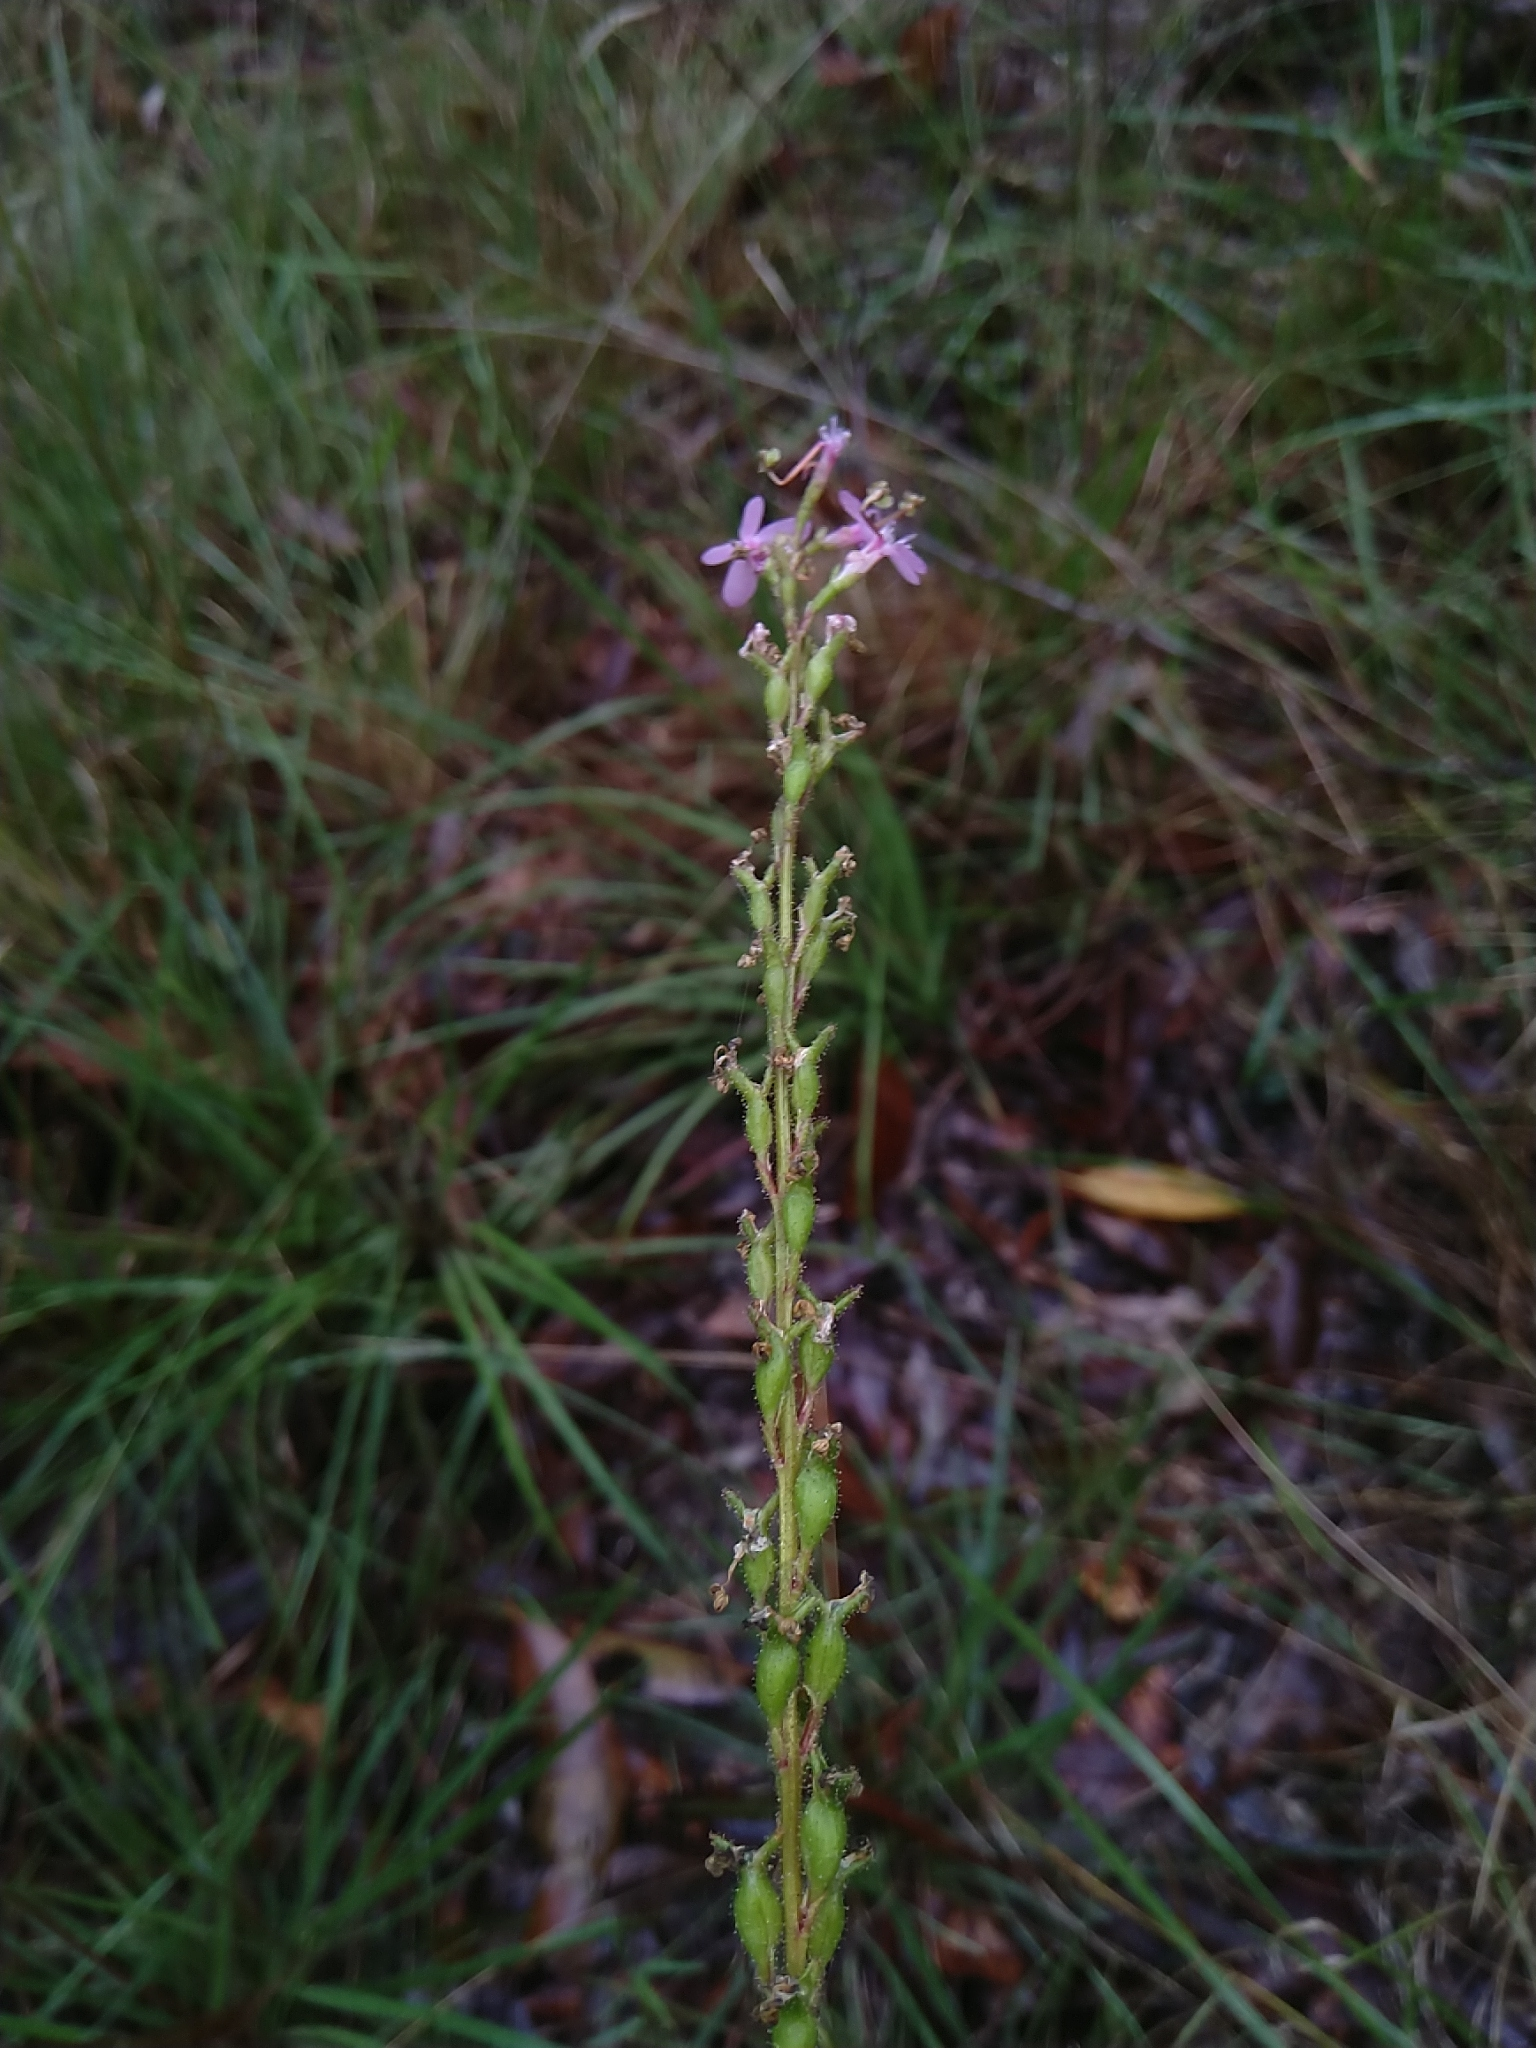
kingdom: Plantae
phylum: Tracheophyta
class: Magnoliopsida
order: Asterales
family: Stylidiaceae
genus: Stylidium
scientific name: Stylidium graminifolium
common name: Grass triggerplant
